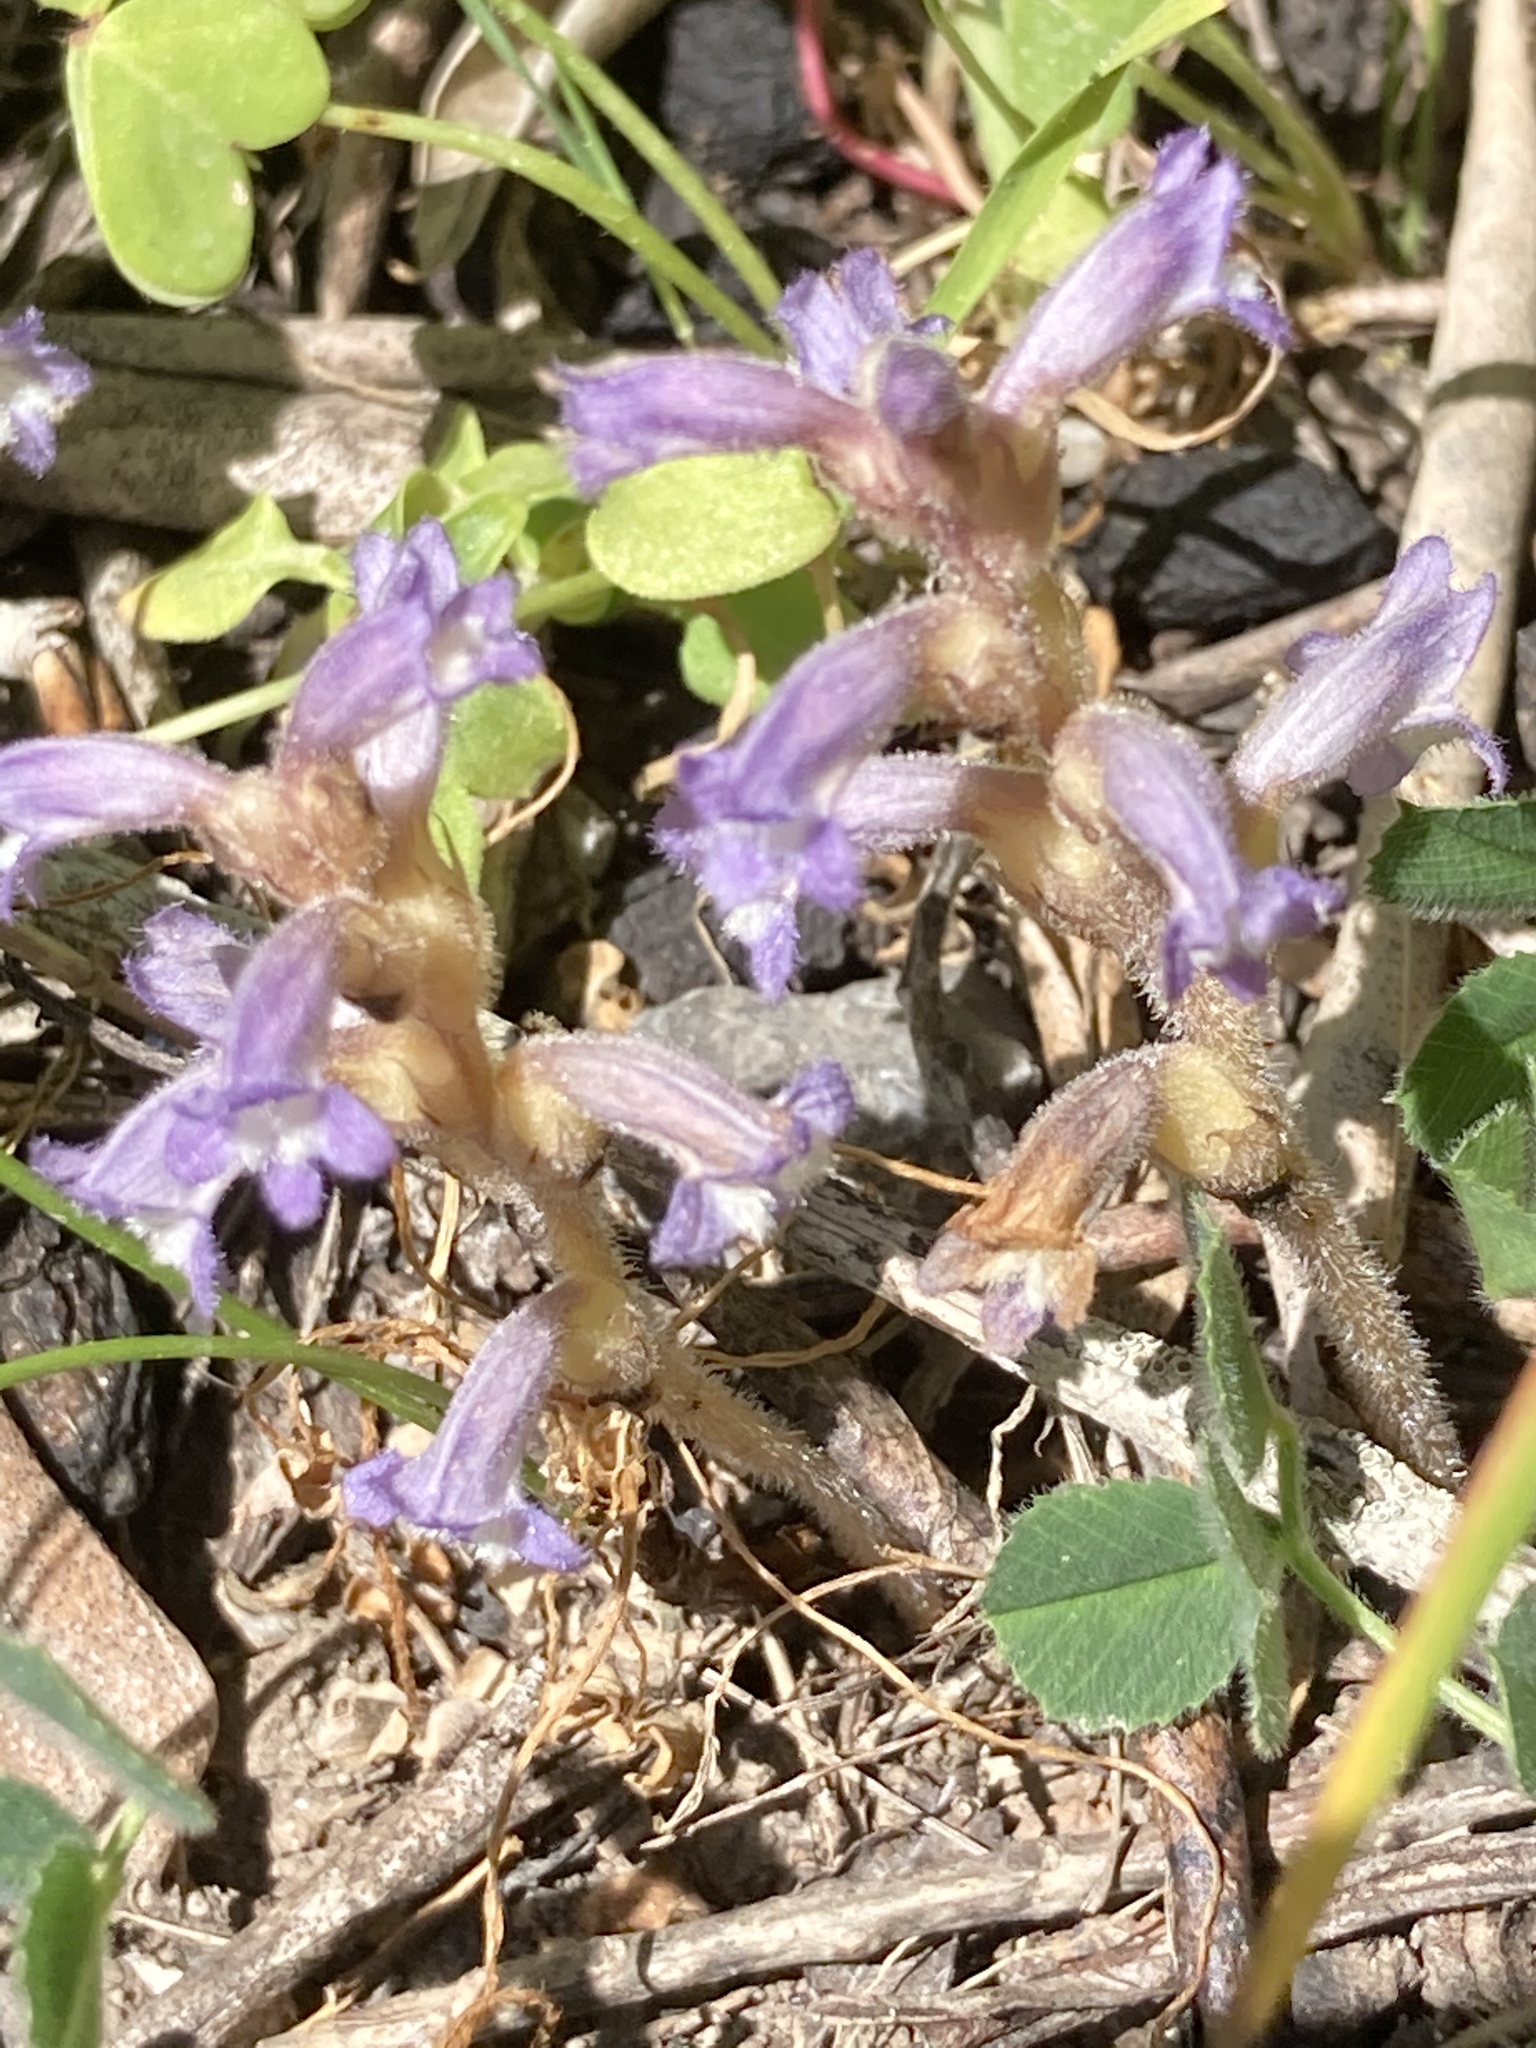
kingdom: Plantae
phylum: Tracheophyta
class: Magnoliopsida
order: Lamiales
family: Orobanchaceae
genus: Phelipanche
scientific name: Phelipanche mutelii
